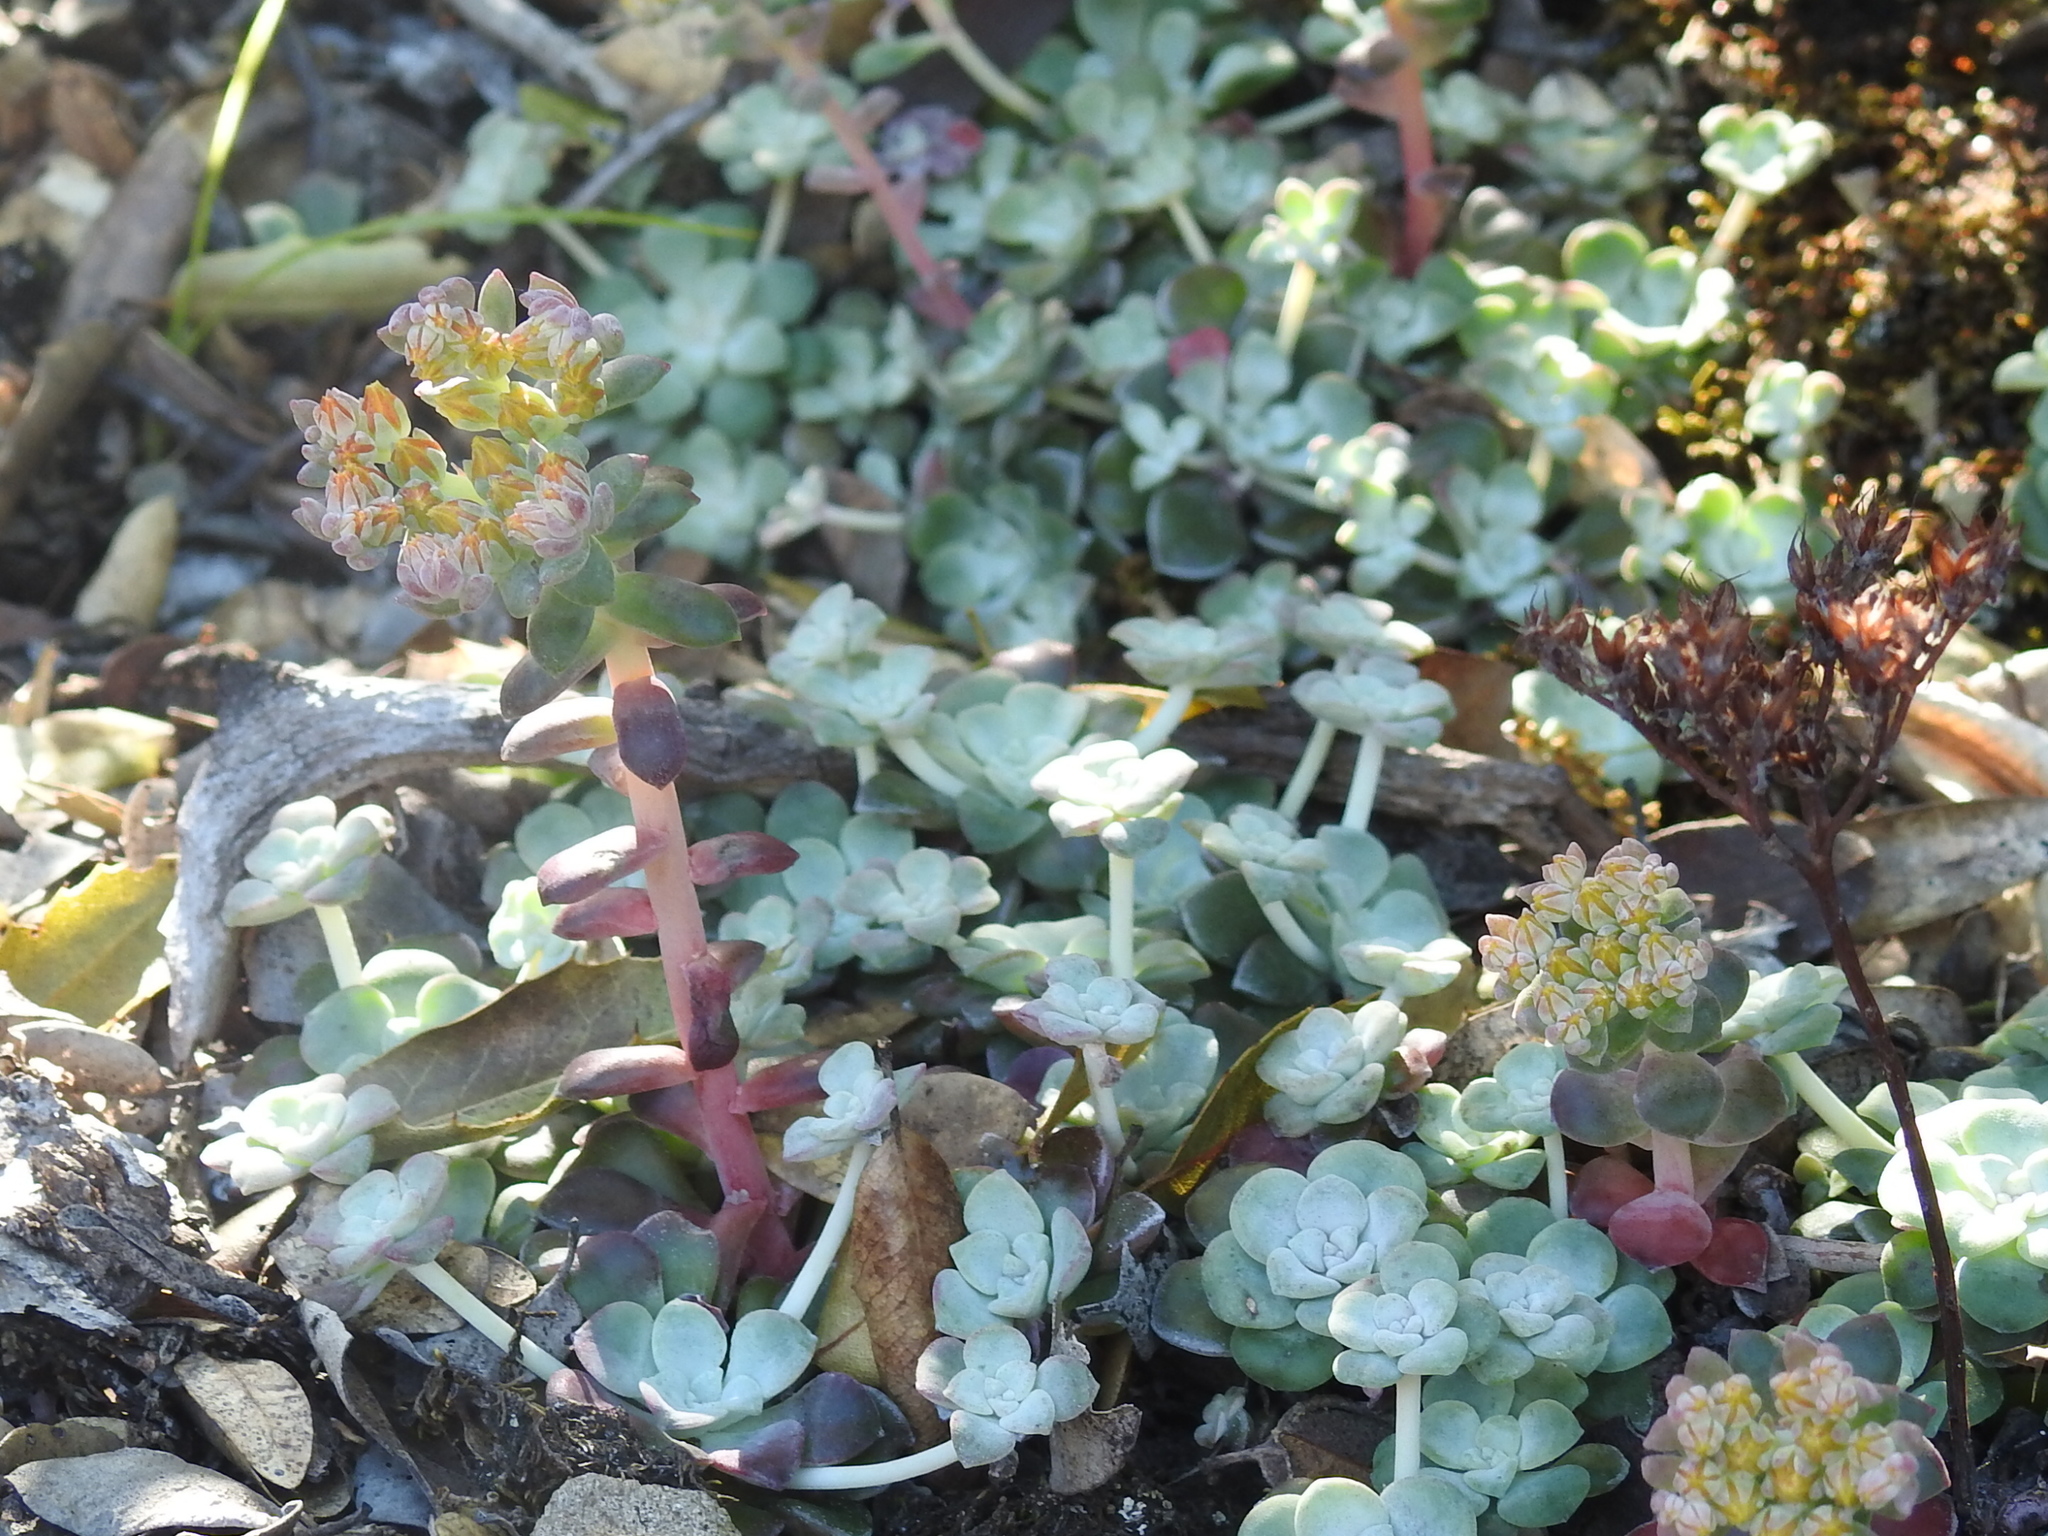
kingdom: Plantae
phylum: Tracheophyta
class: Magnoliopsida
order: Saxifragales
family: Crassulaceae
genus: Sedum
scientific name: Sedum spathulifolium
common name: Colorado stonecrop
